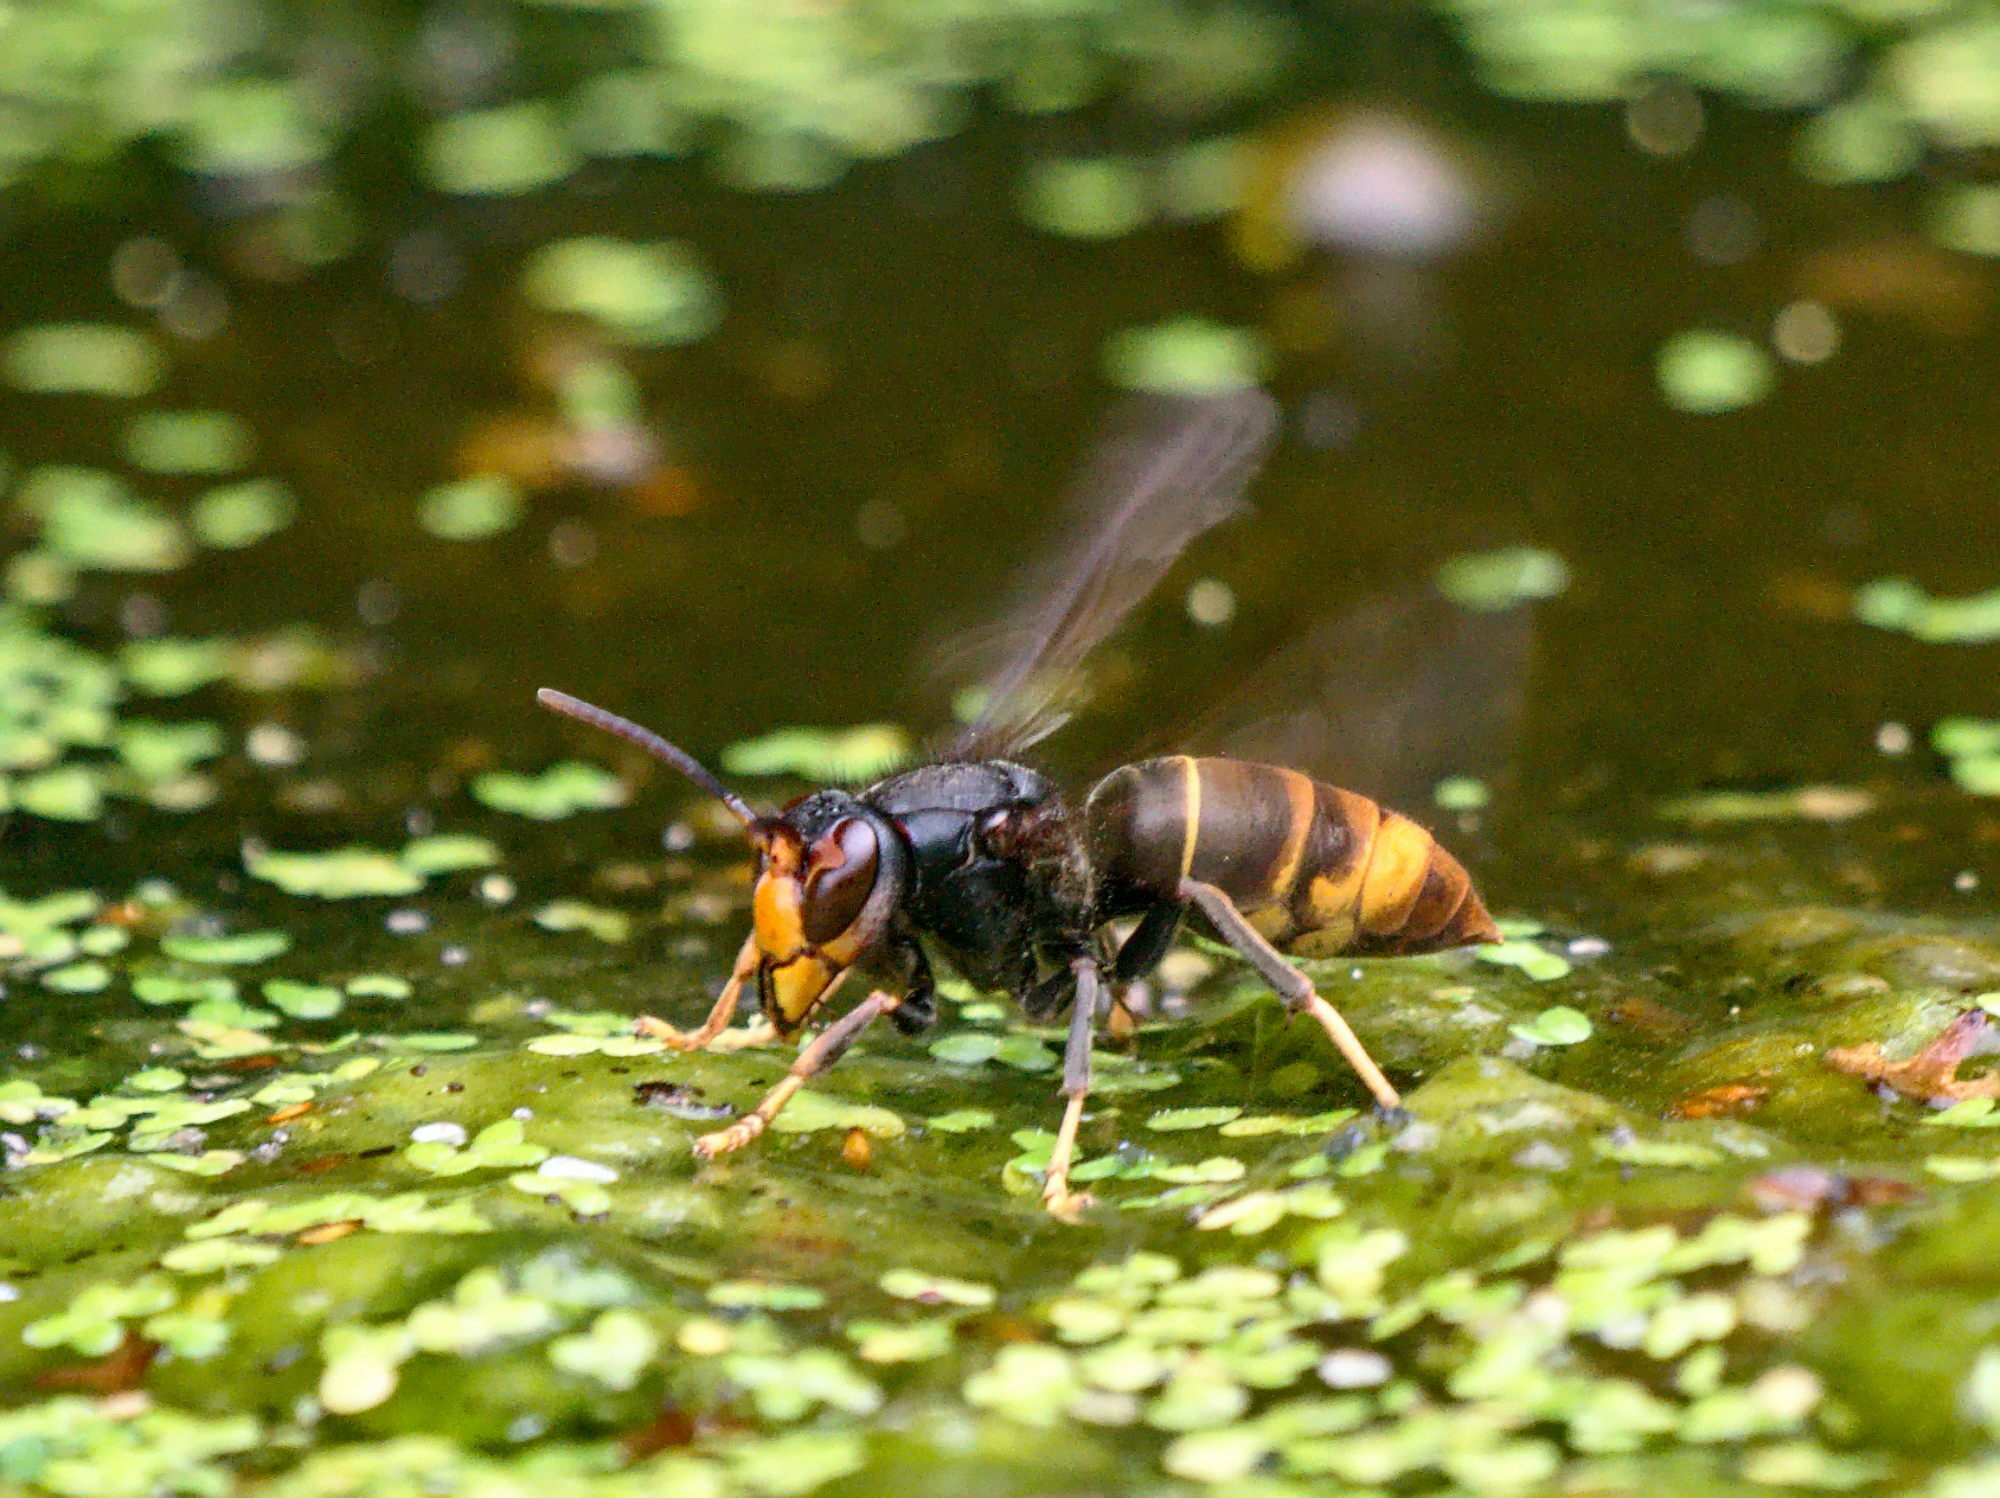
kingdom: Animalia
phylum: Arthropoda
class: Insecta
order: Hymenoptera
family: Vespidae
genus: Vespa
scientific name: Vespa velutina
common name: Asian hornet
